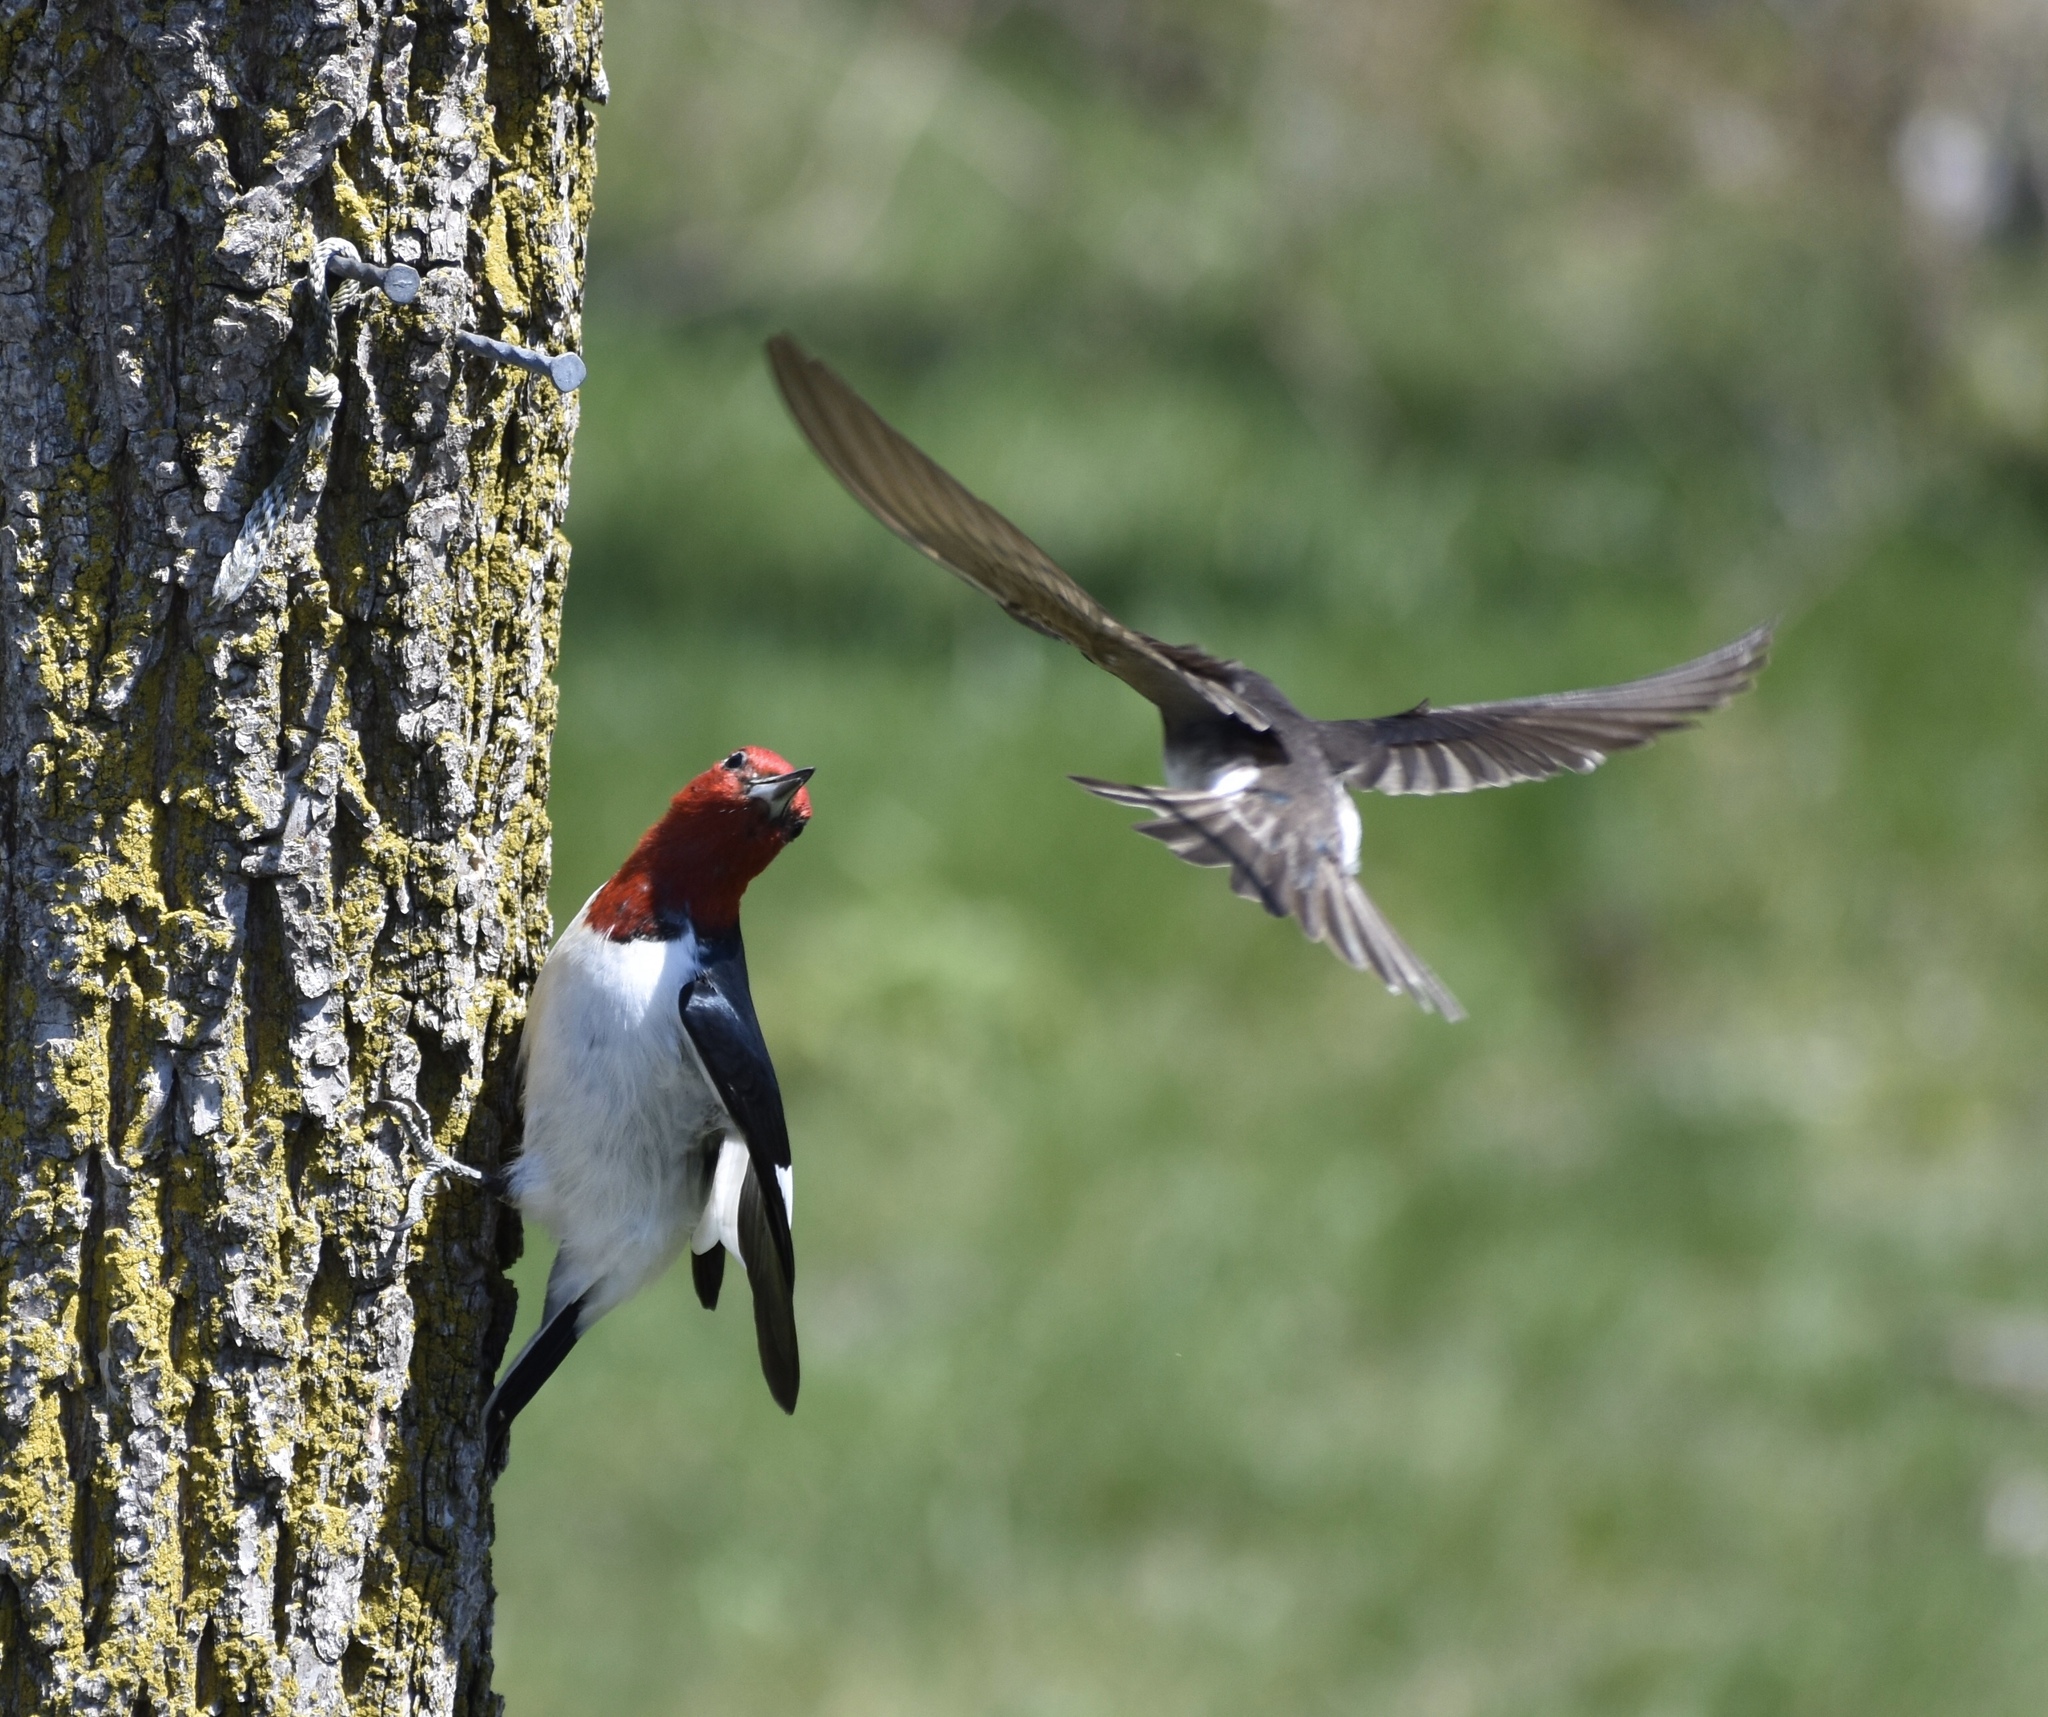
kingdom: Animalia
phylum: Chordata
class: Aves
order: Piciformes
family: Picidae
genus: Melanerpes
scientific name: Melanerpes erythrocephalus
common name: Red-headed woodpecker
